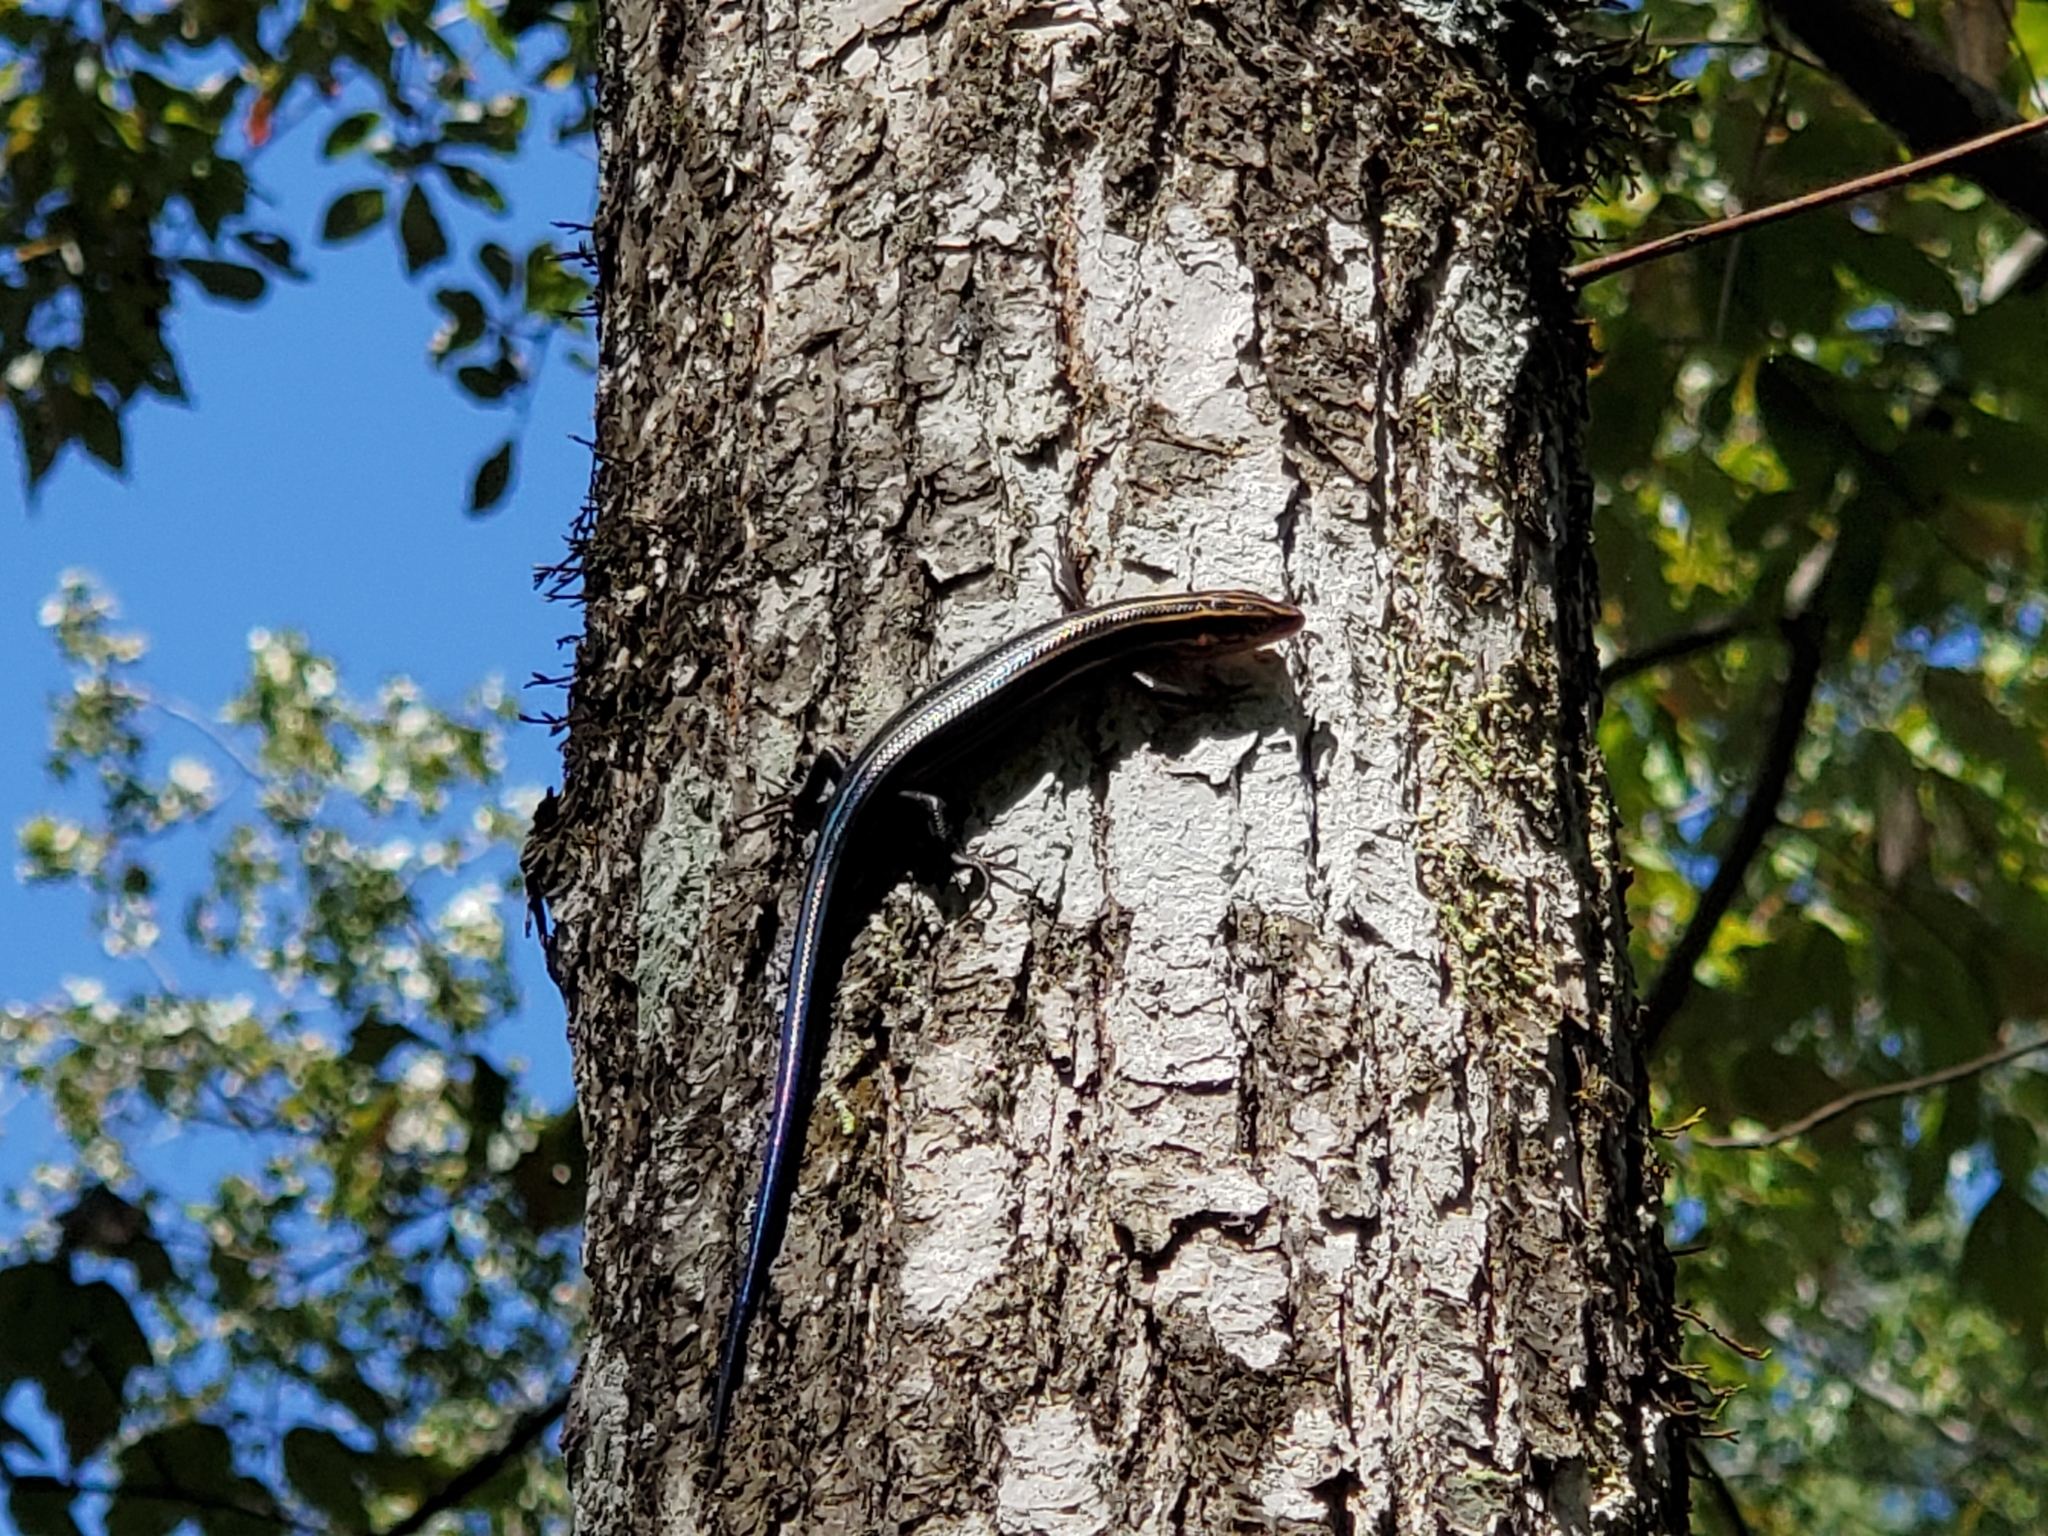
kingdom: Animalia
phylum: Chordata
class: Squamata
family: Scincidae
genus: Plestiodon
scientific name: Plestiodon laticeps
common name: Broadhead skink
